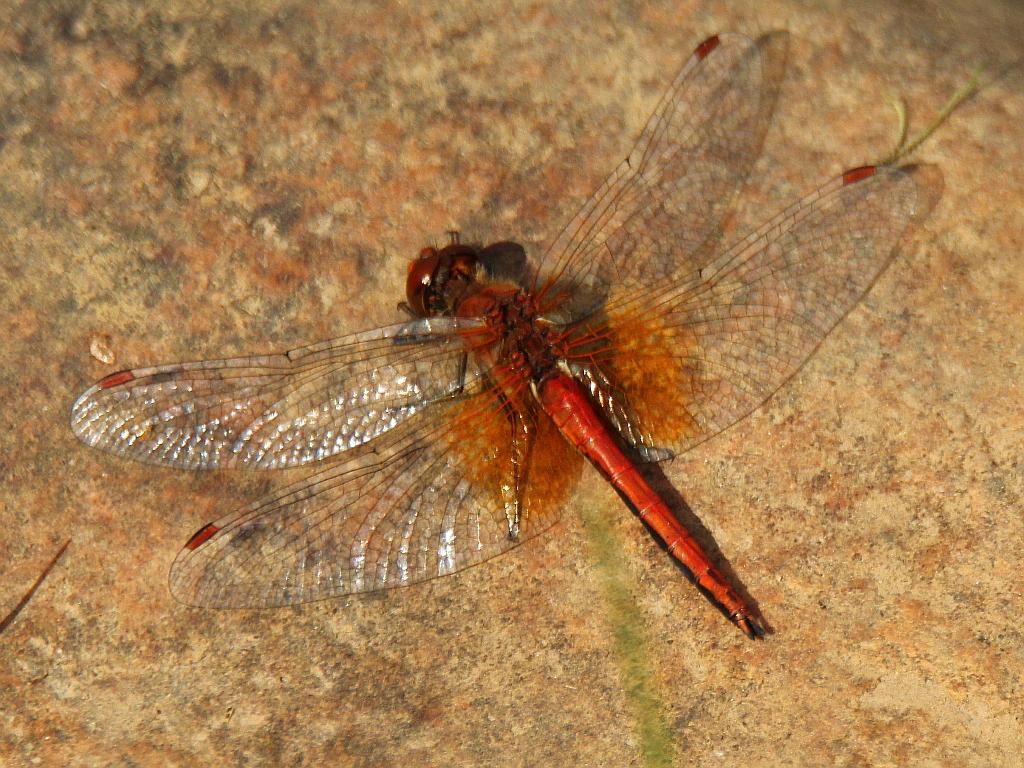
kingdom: Animalia
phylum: Arthropoda
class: Insecta
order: Odonata
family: Libellulidae
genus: Sympetrum
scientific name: Sympetrum flaveolum
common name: Yellow-winged darter
